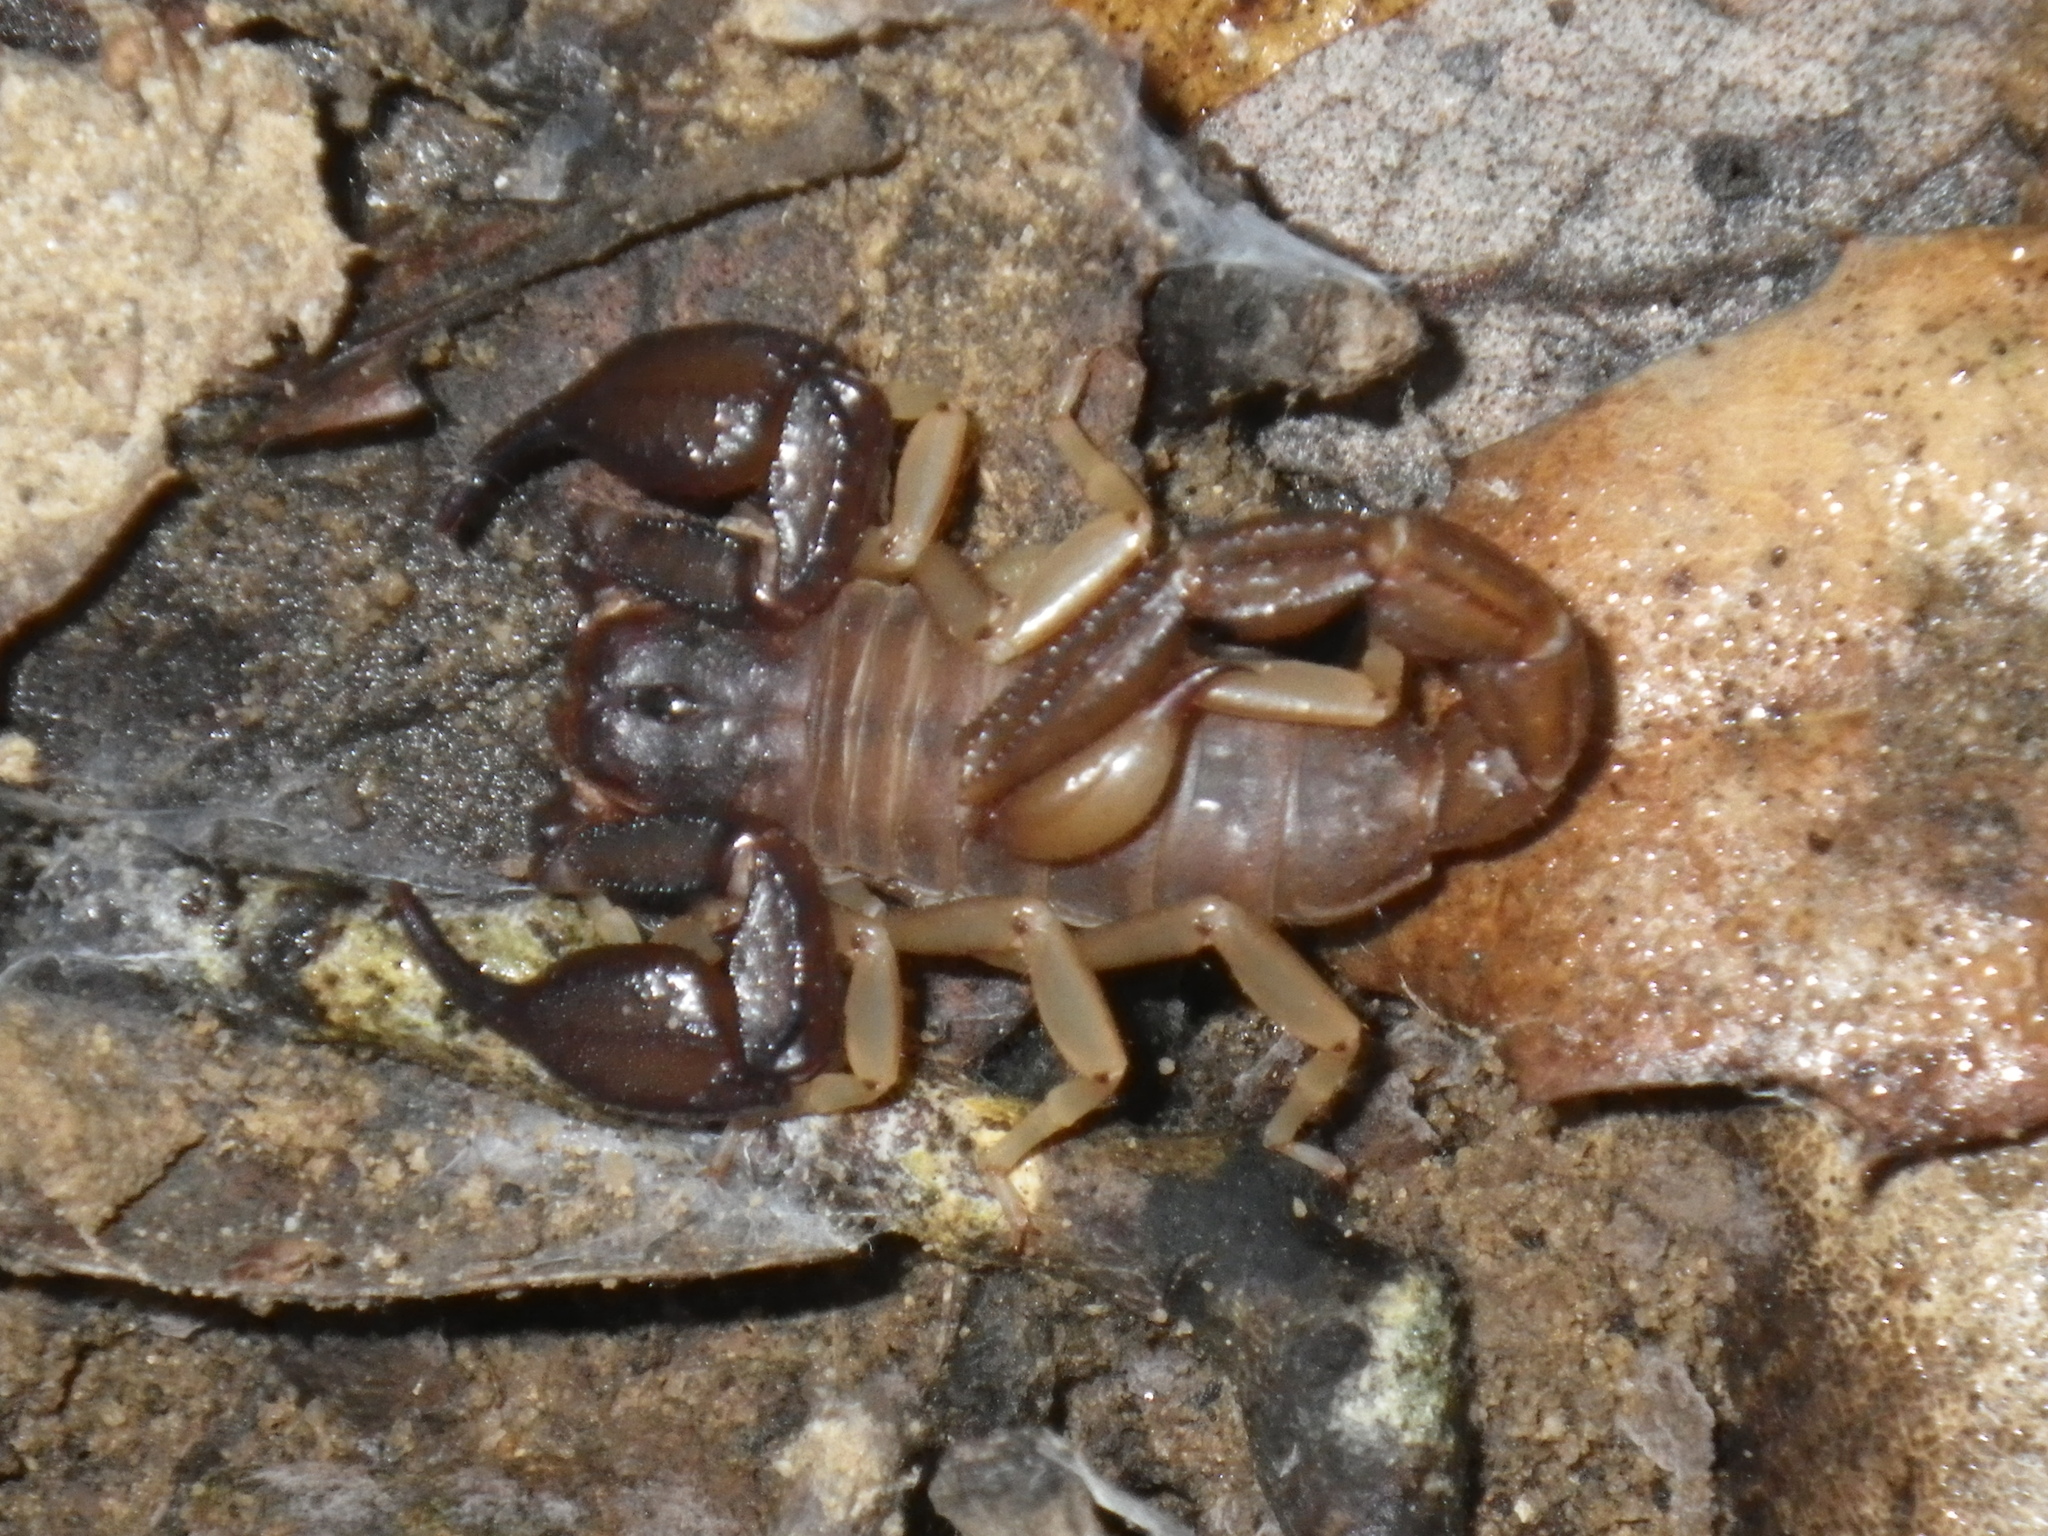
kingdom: Animalia
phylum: Arthropoda
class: Arachnida
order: Scorpiones
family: Chactidae
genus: Uroctonus
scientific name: Uroctonus mordax
